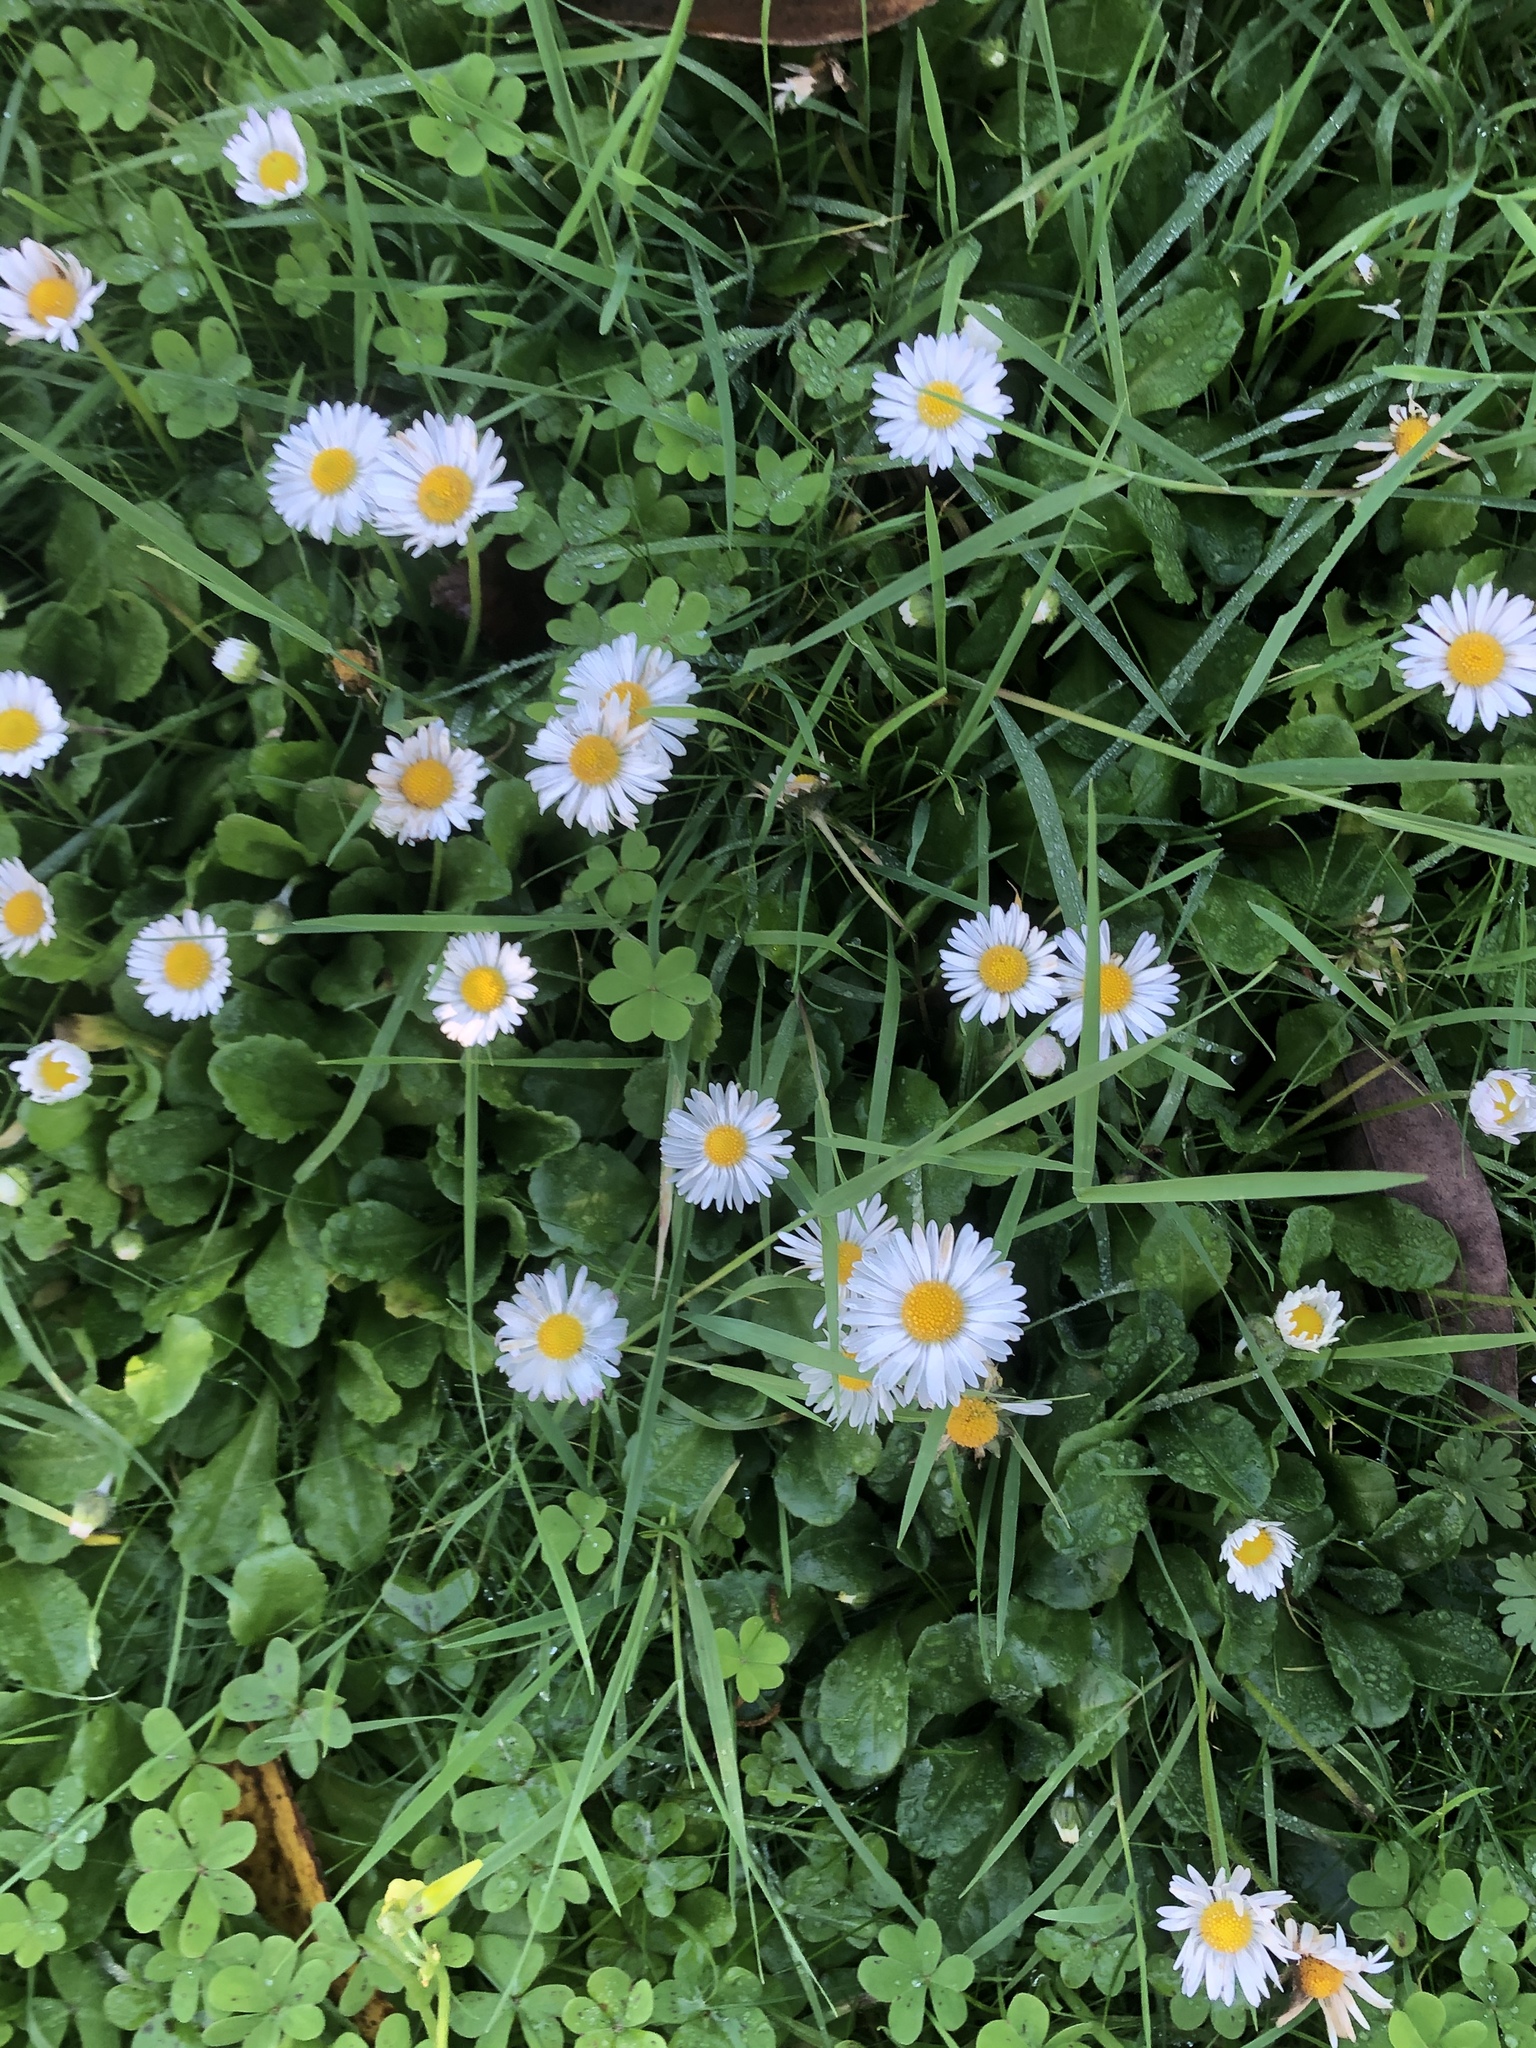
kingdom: Plantae
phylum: Tracheophyta
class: Magnoliopsida
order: Asterales
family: Asteraceae
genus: Bellis
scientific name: Bellis perennis
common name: Lawndaisy
